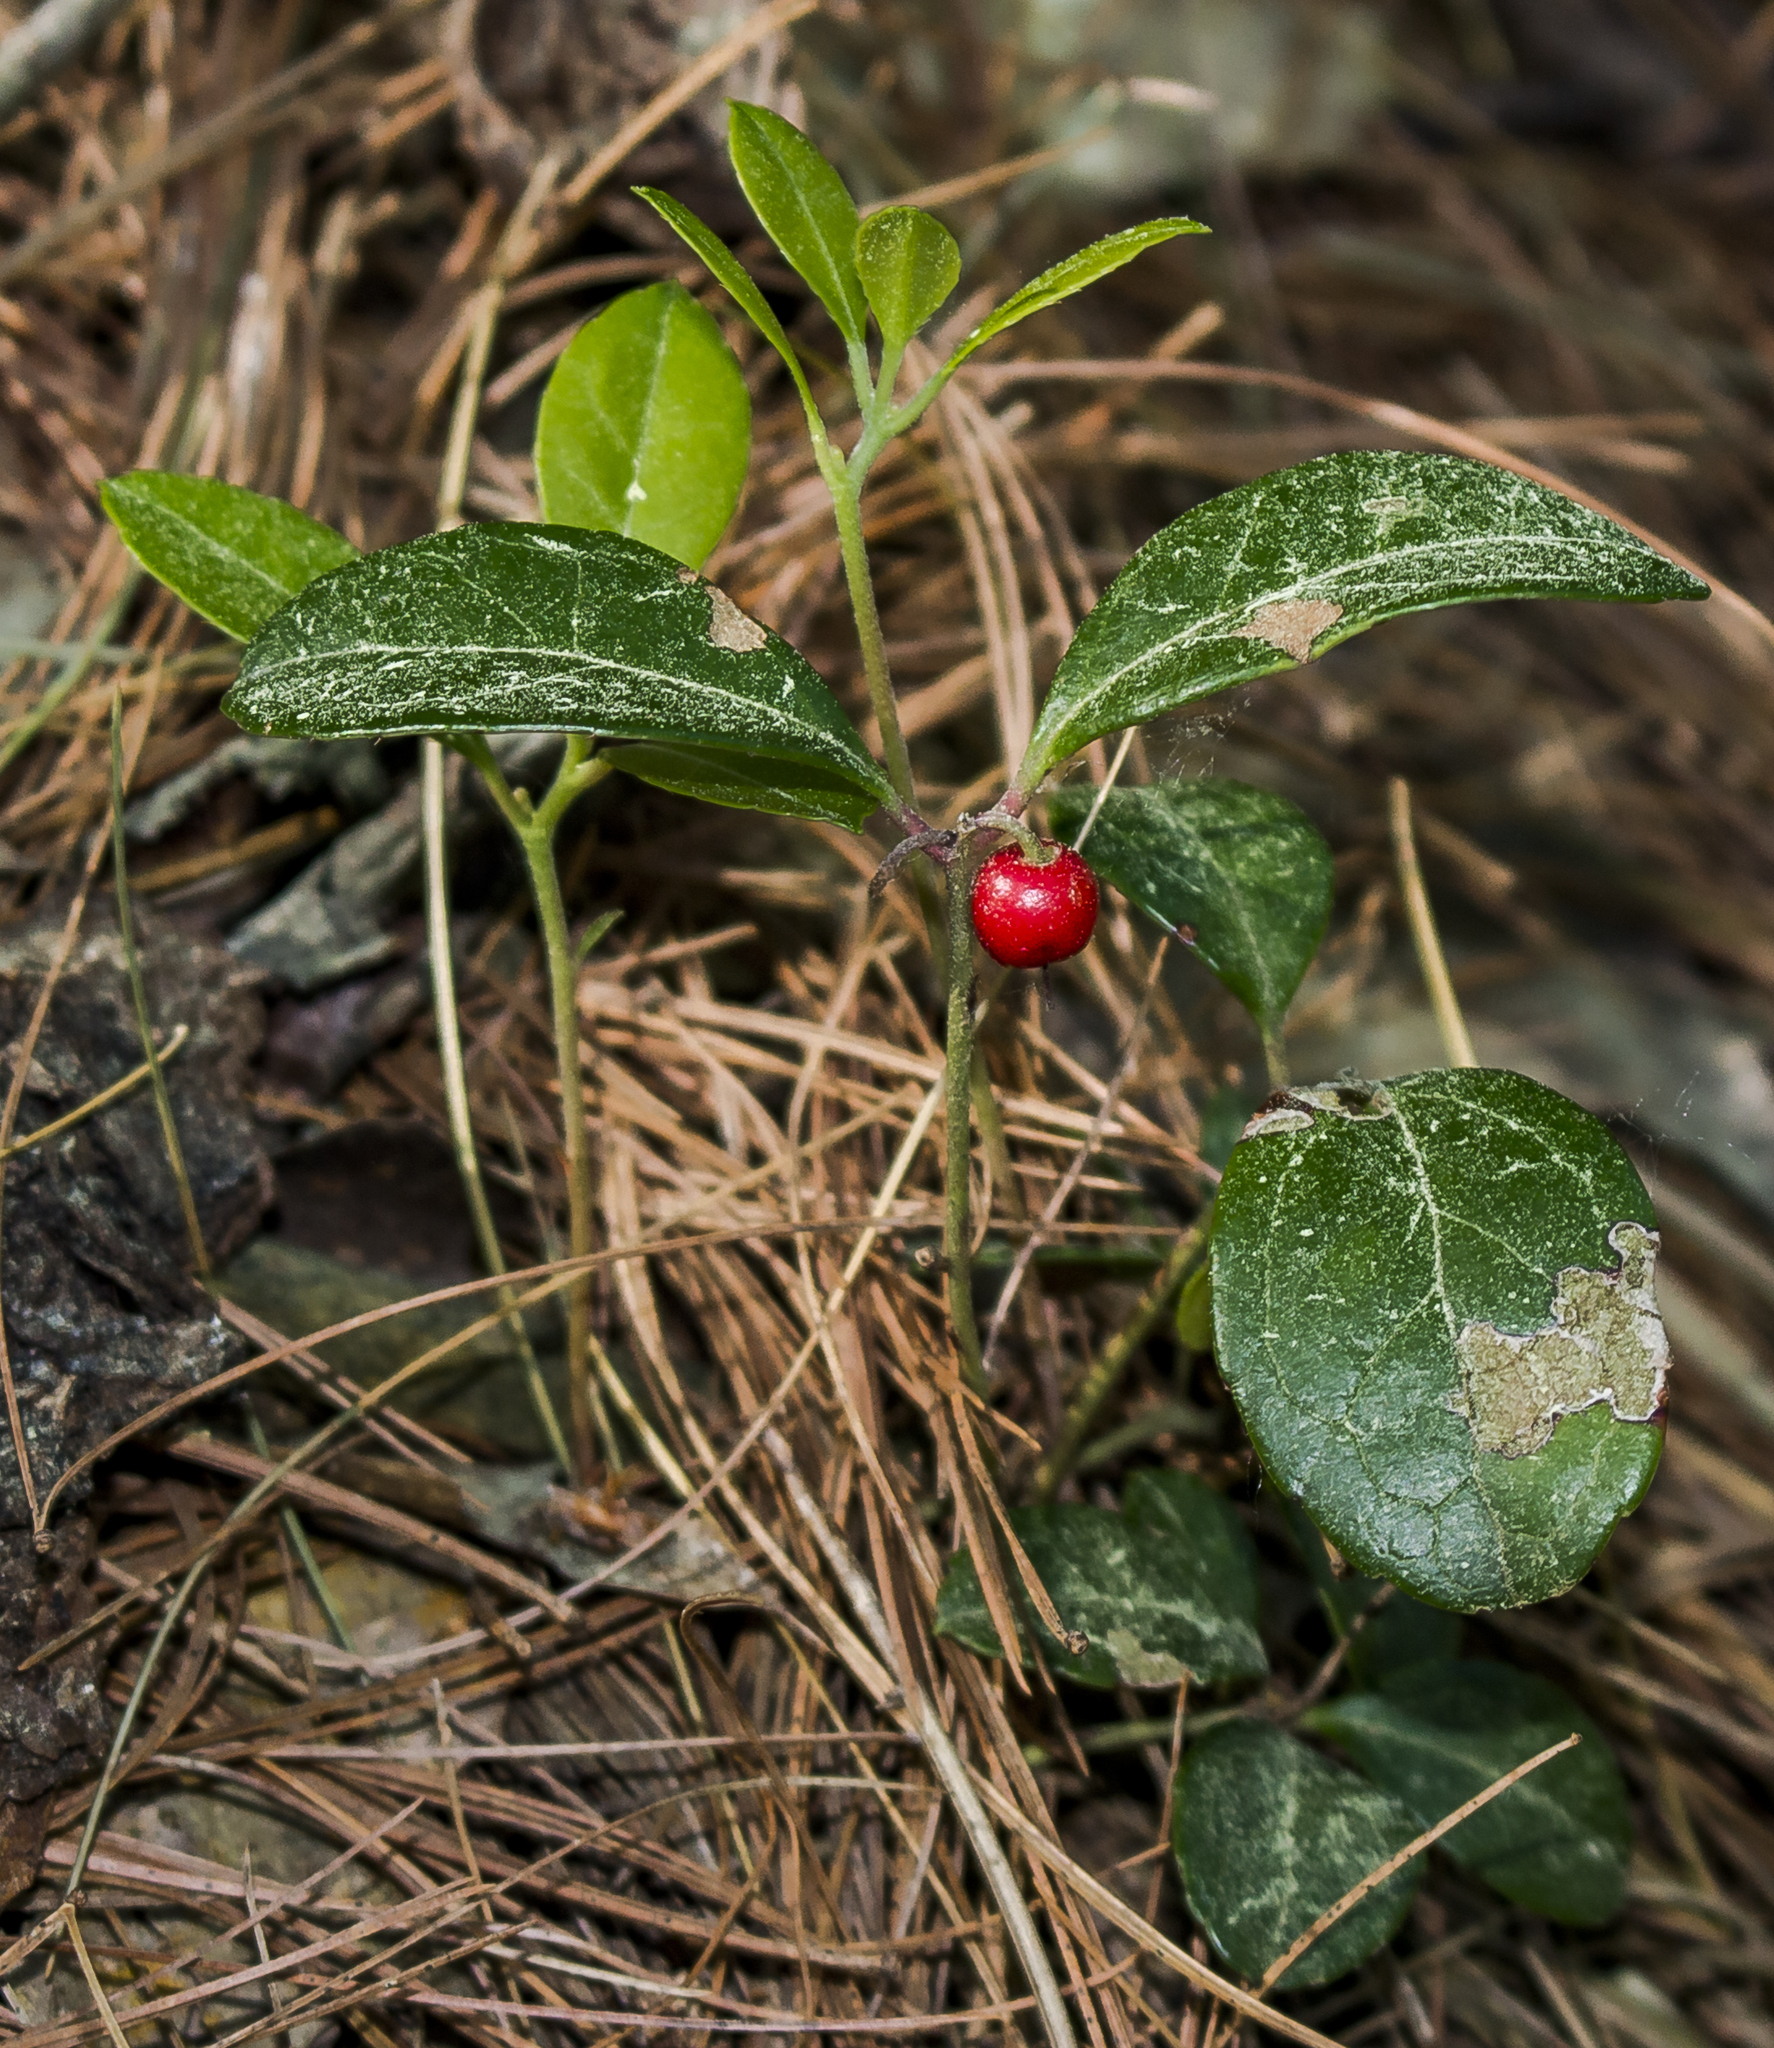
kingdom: Plantae
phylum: Tracheophyta
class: Magnoliopsida
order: Ericales
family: Ericaceae
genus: Gaultheria
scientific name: Gaultheria procumbens
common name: Checkerberry
